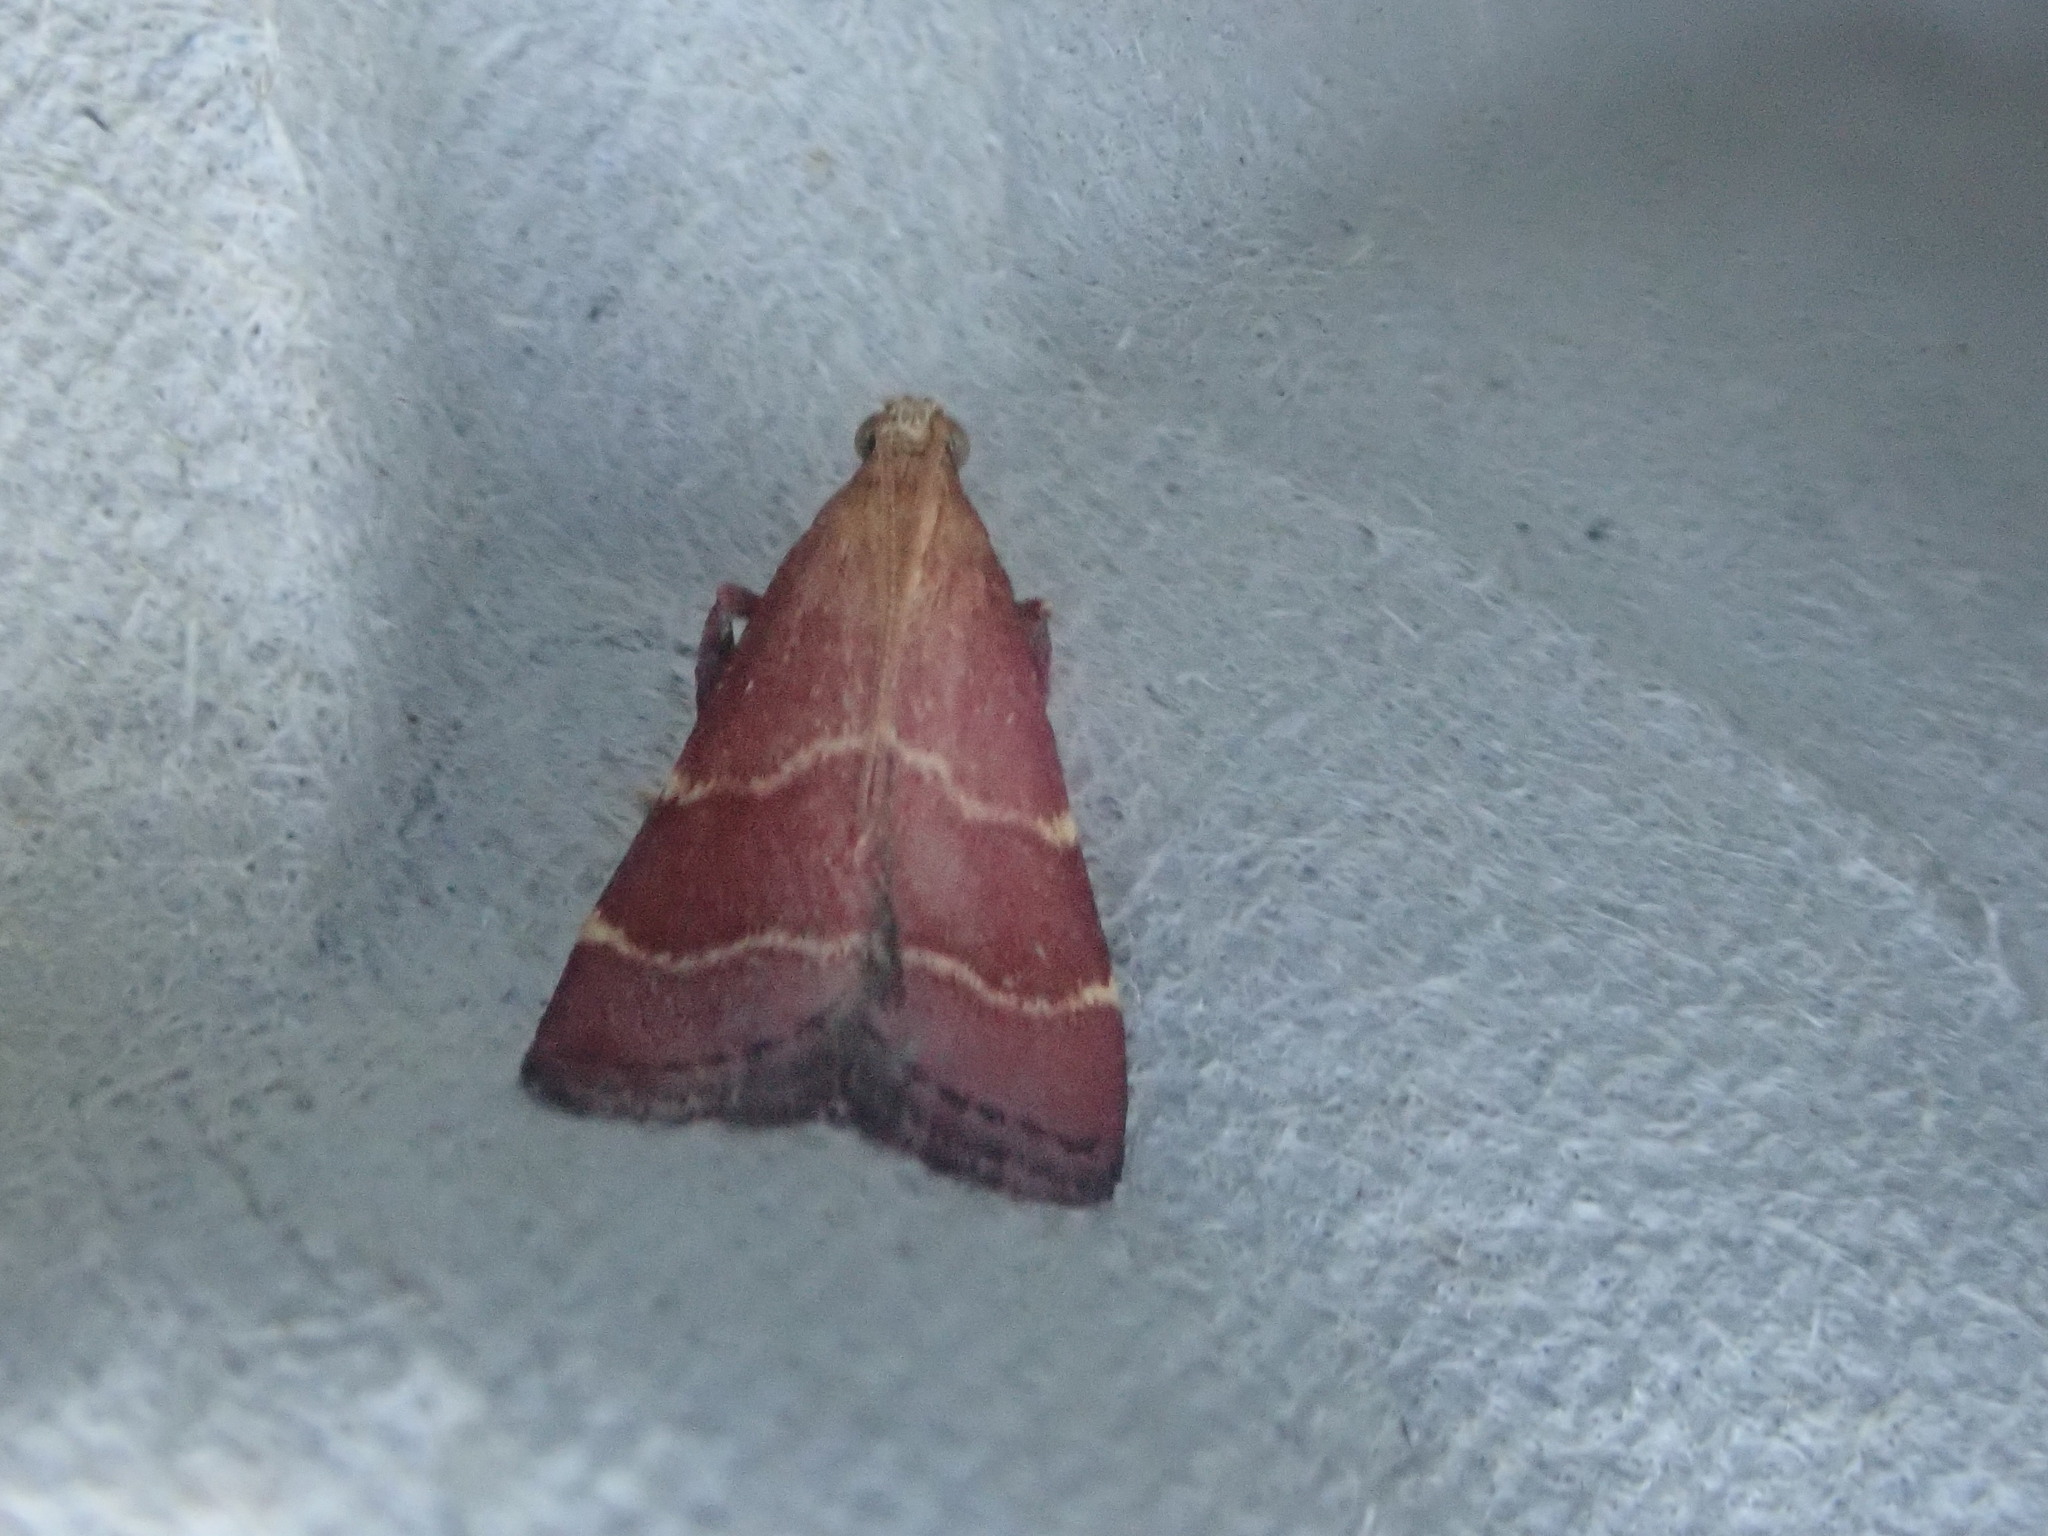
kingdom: Animalia
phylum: Arthropoda
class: Insecta
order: Lepidoptera
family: Pyralidae
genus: Arta
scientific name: Arta statalis
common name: Posturing arta moth
